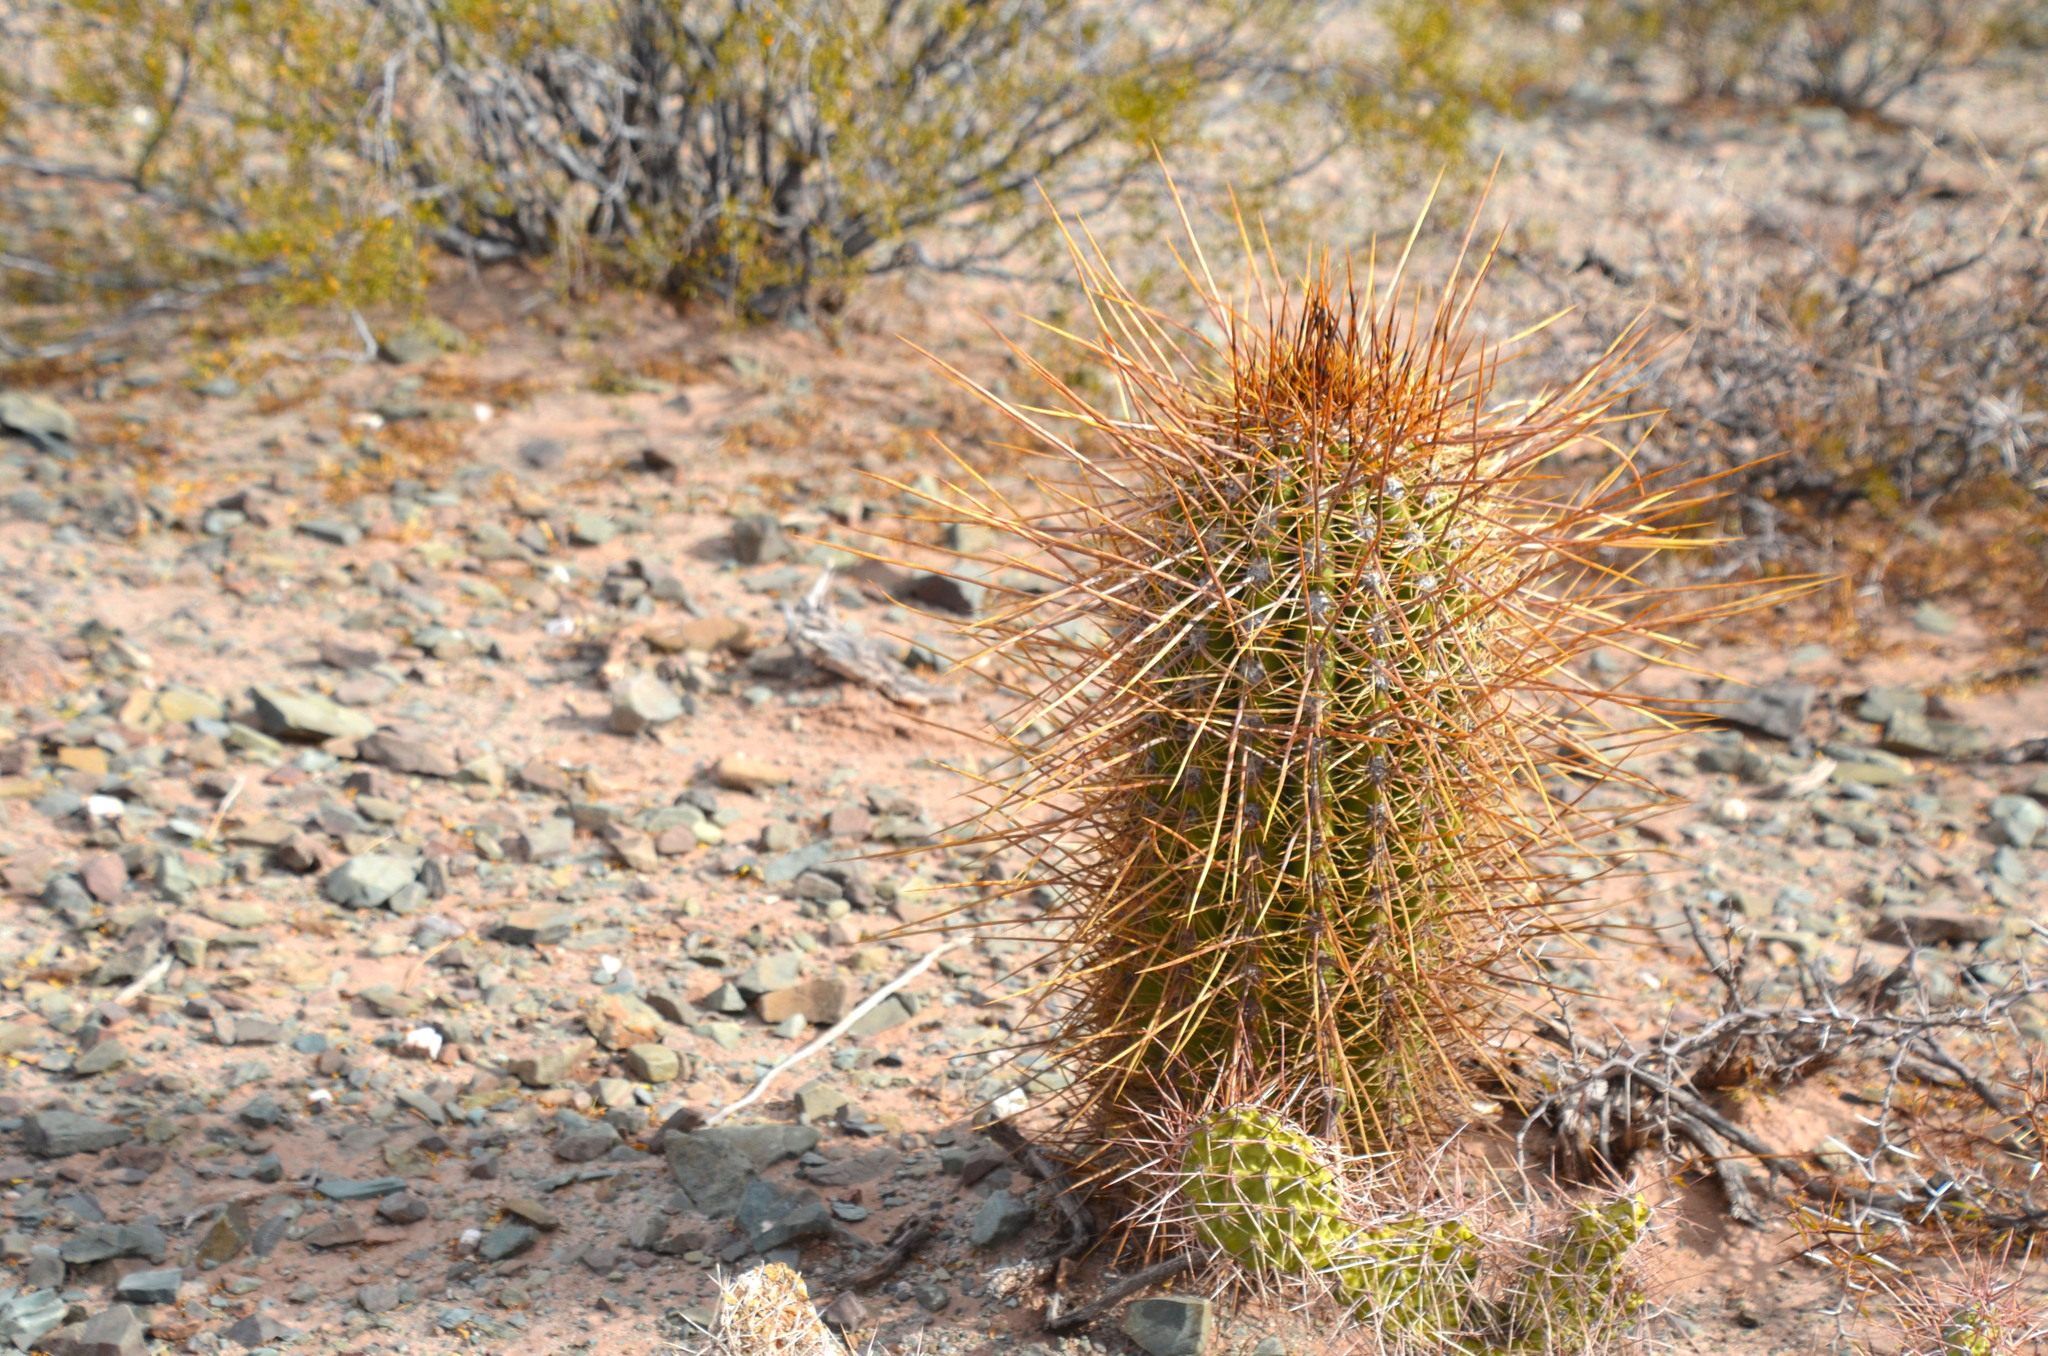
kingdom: Plantae
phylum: Tracheophyta
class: Magnoliopsida
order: Caryophyllales
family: Cactaceae
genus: Leucostele
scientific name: Leucostele atacamensis
